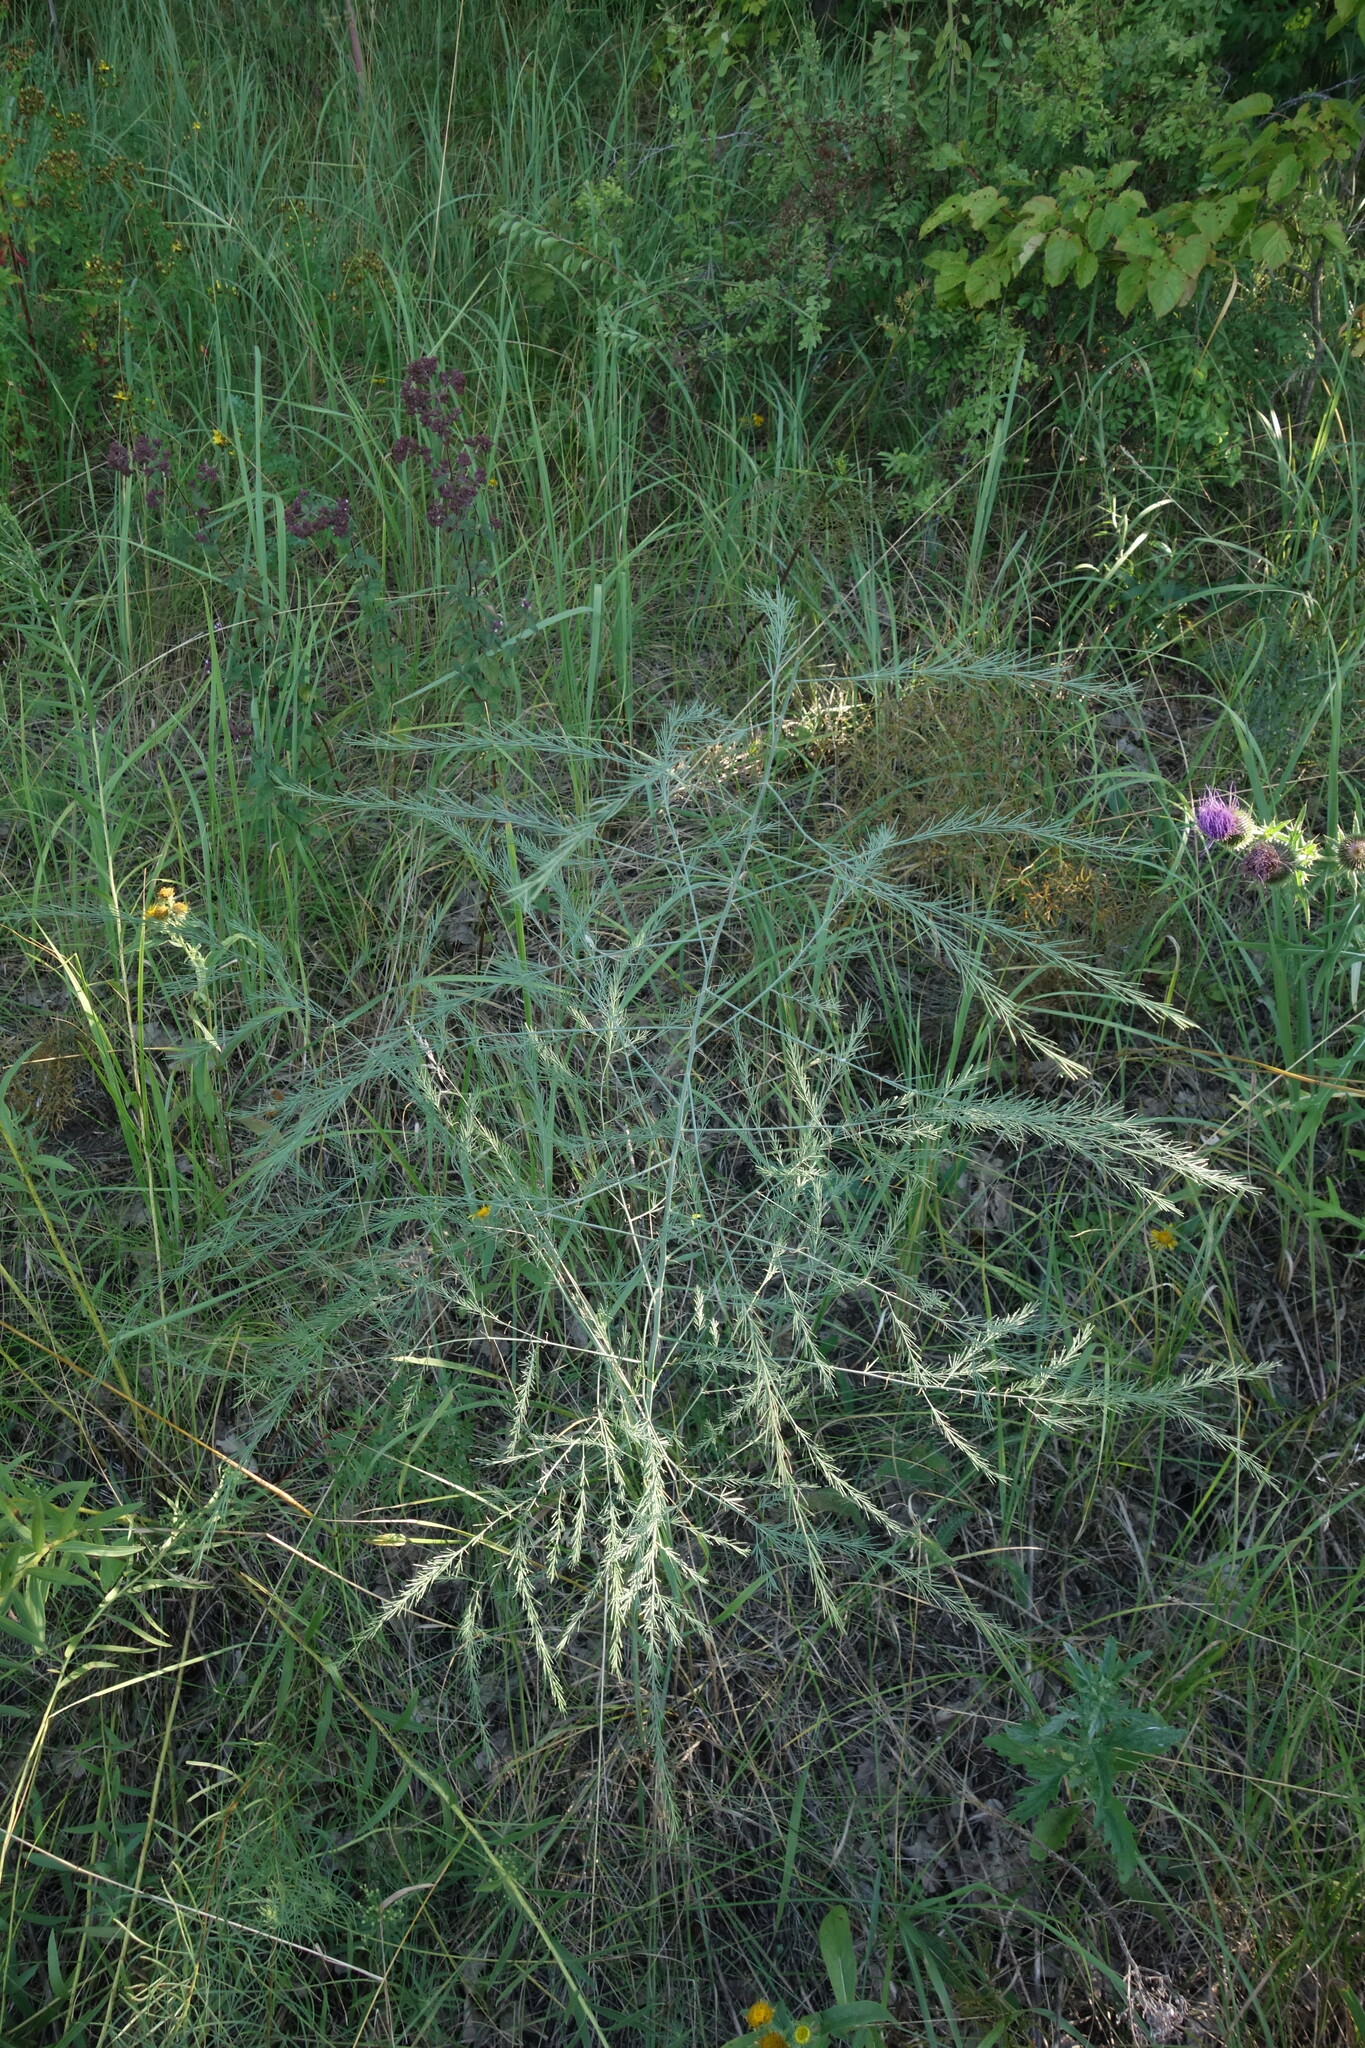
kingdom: Plantae
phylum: Tracheophyta
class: Liliopsida
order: Asparagales
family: Asparagaceae
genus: Asparagus
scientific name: Asparagus officinalis
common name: Garden asparagus
